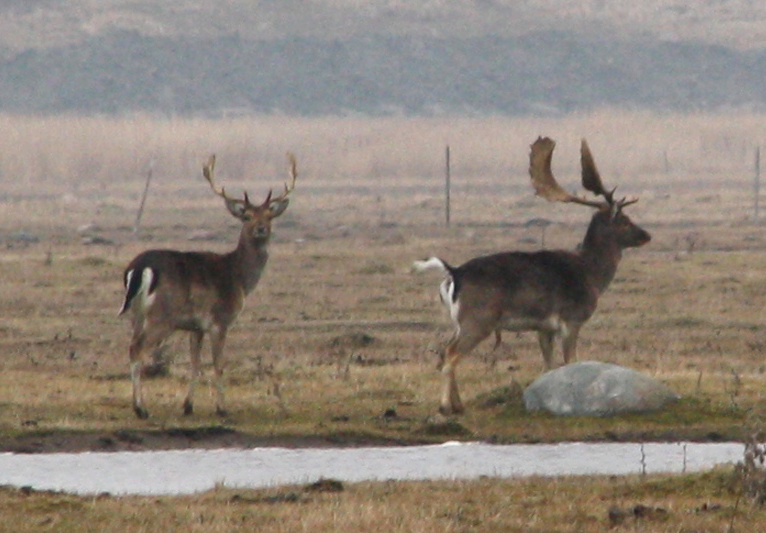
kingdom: Animalia
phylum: Chordata
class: Mammalia
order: Artiodactyla
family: Cervidae
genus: Dama
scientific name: Dama dama
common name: Fallow deer
